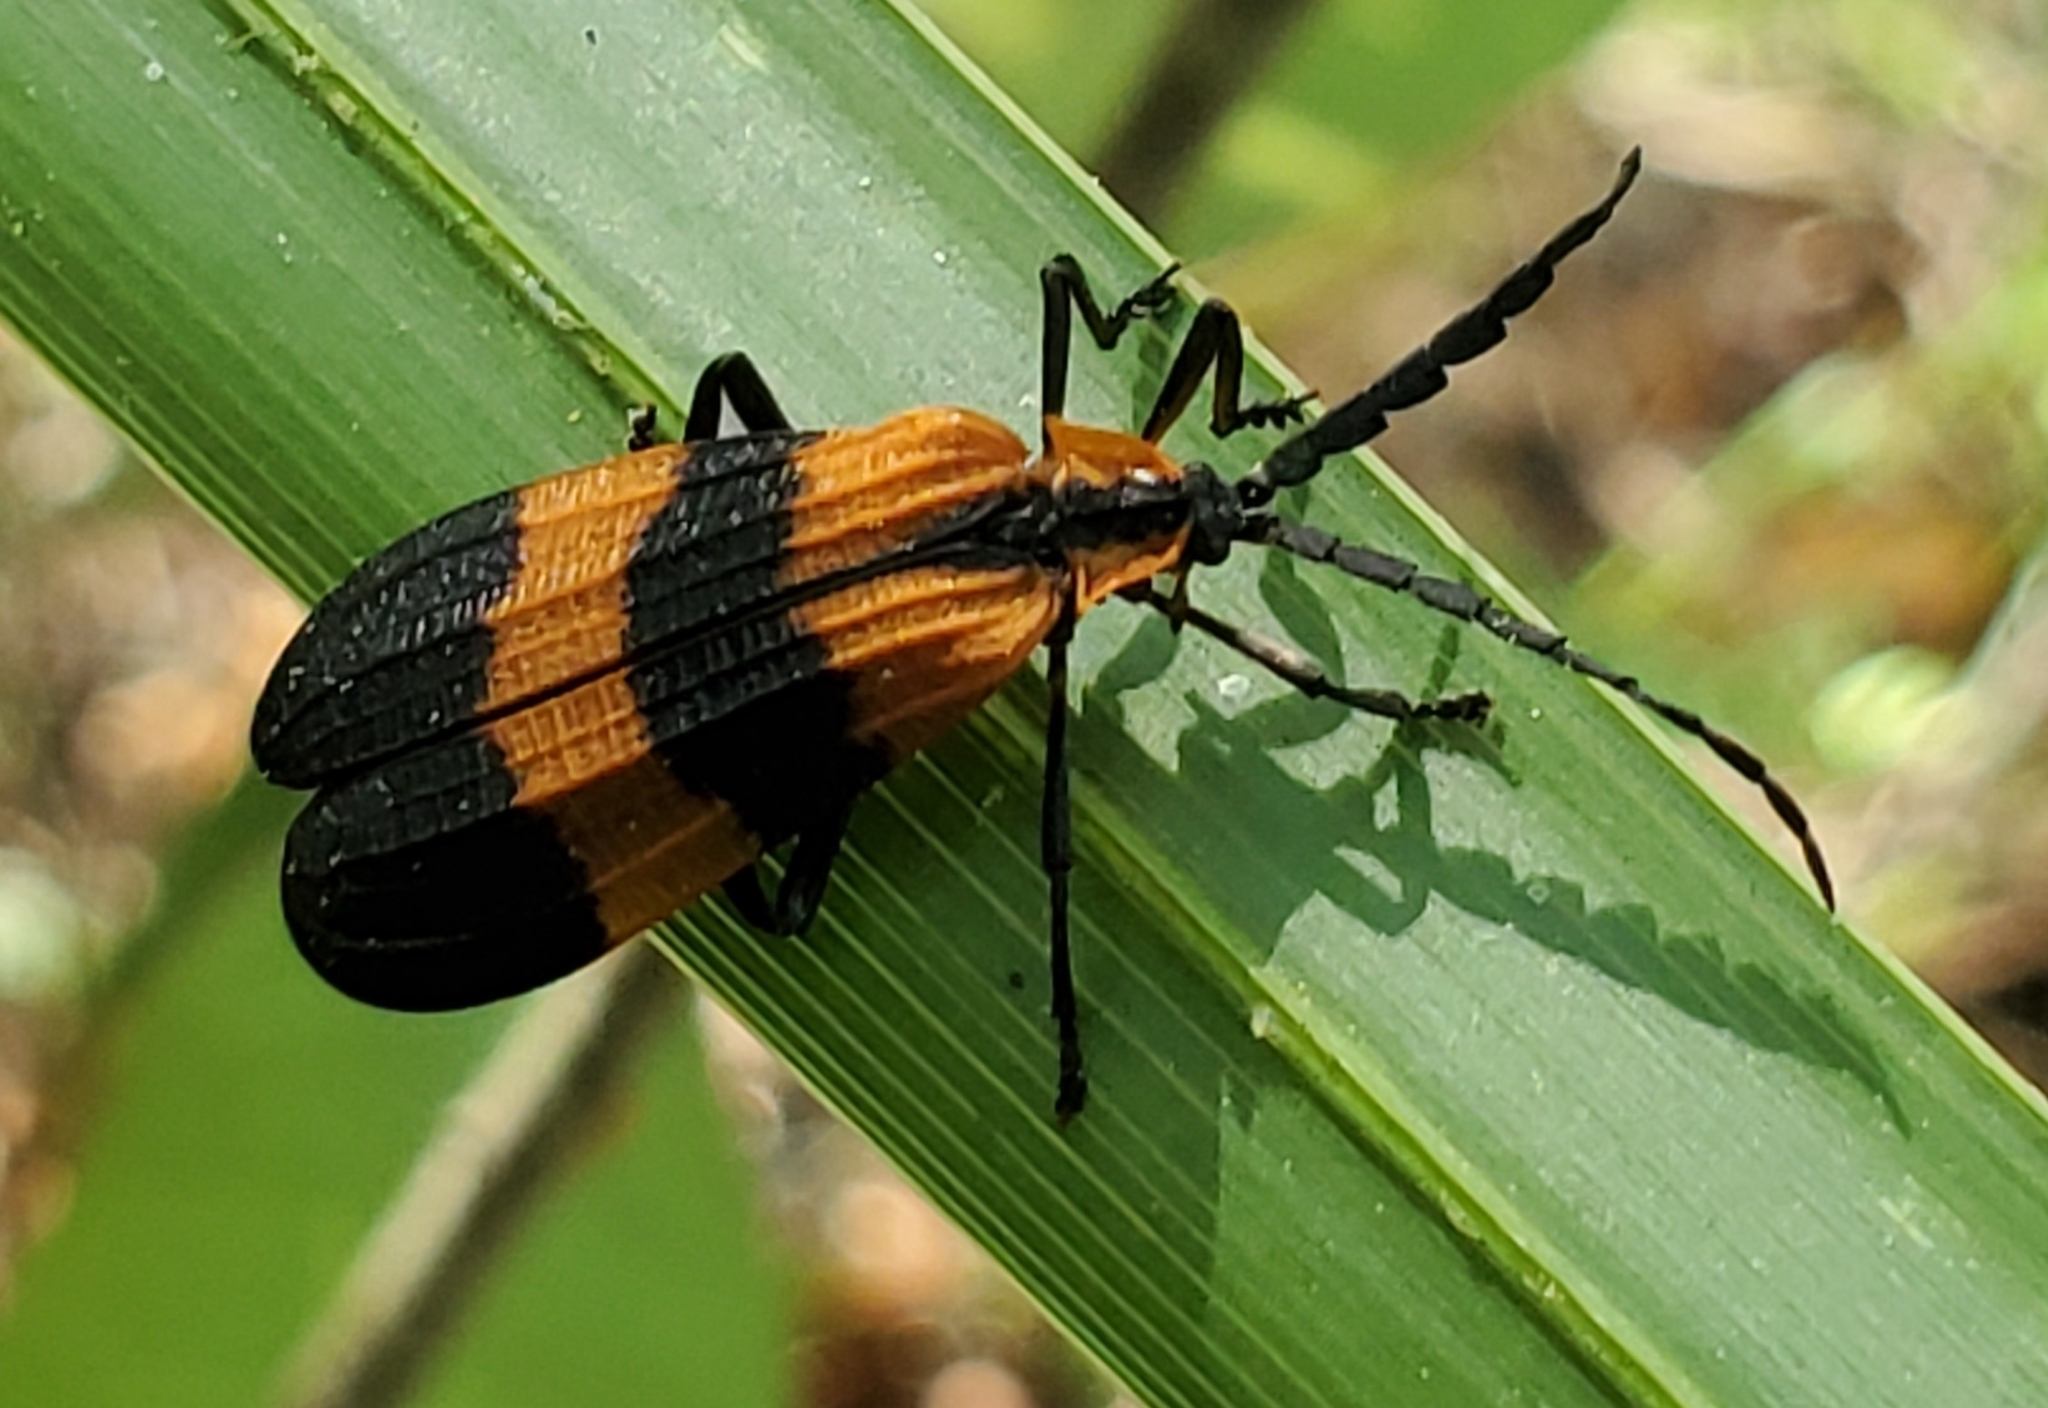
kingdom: Animalia
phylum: Arthropoda
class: Insecta
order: Coleoptera
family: Lycidae
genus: Calopteron
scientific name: Calopteron discrepans
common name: Banded net-winged beetle
